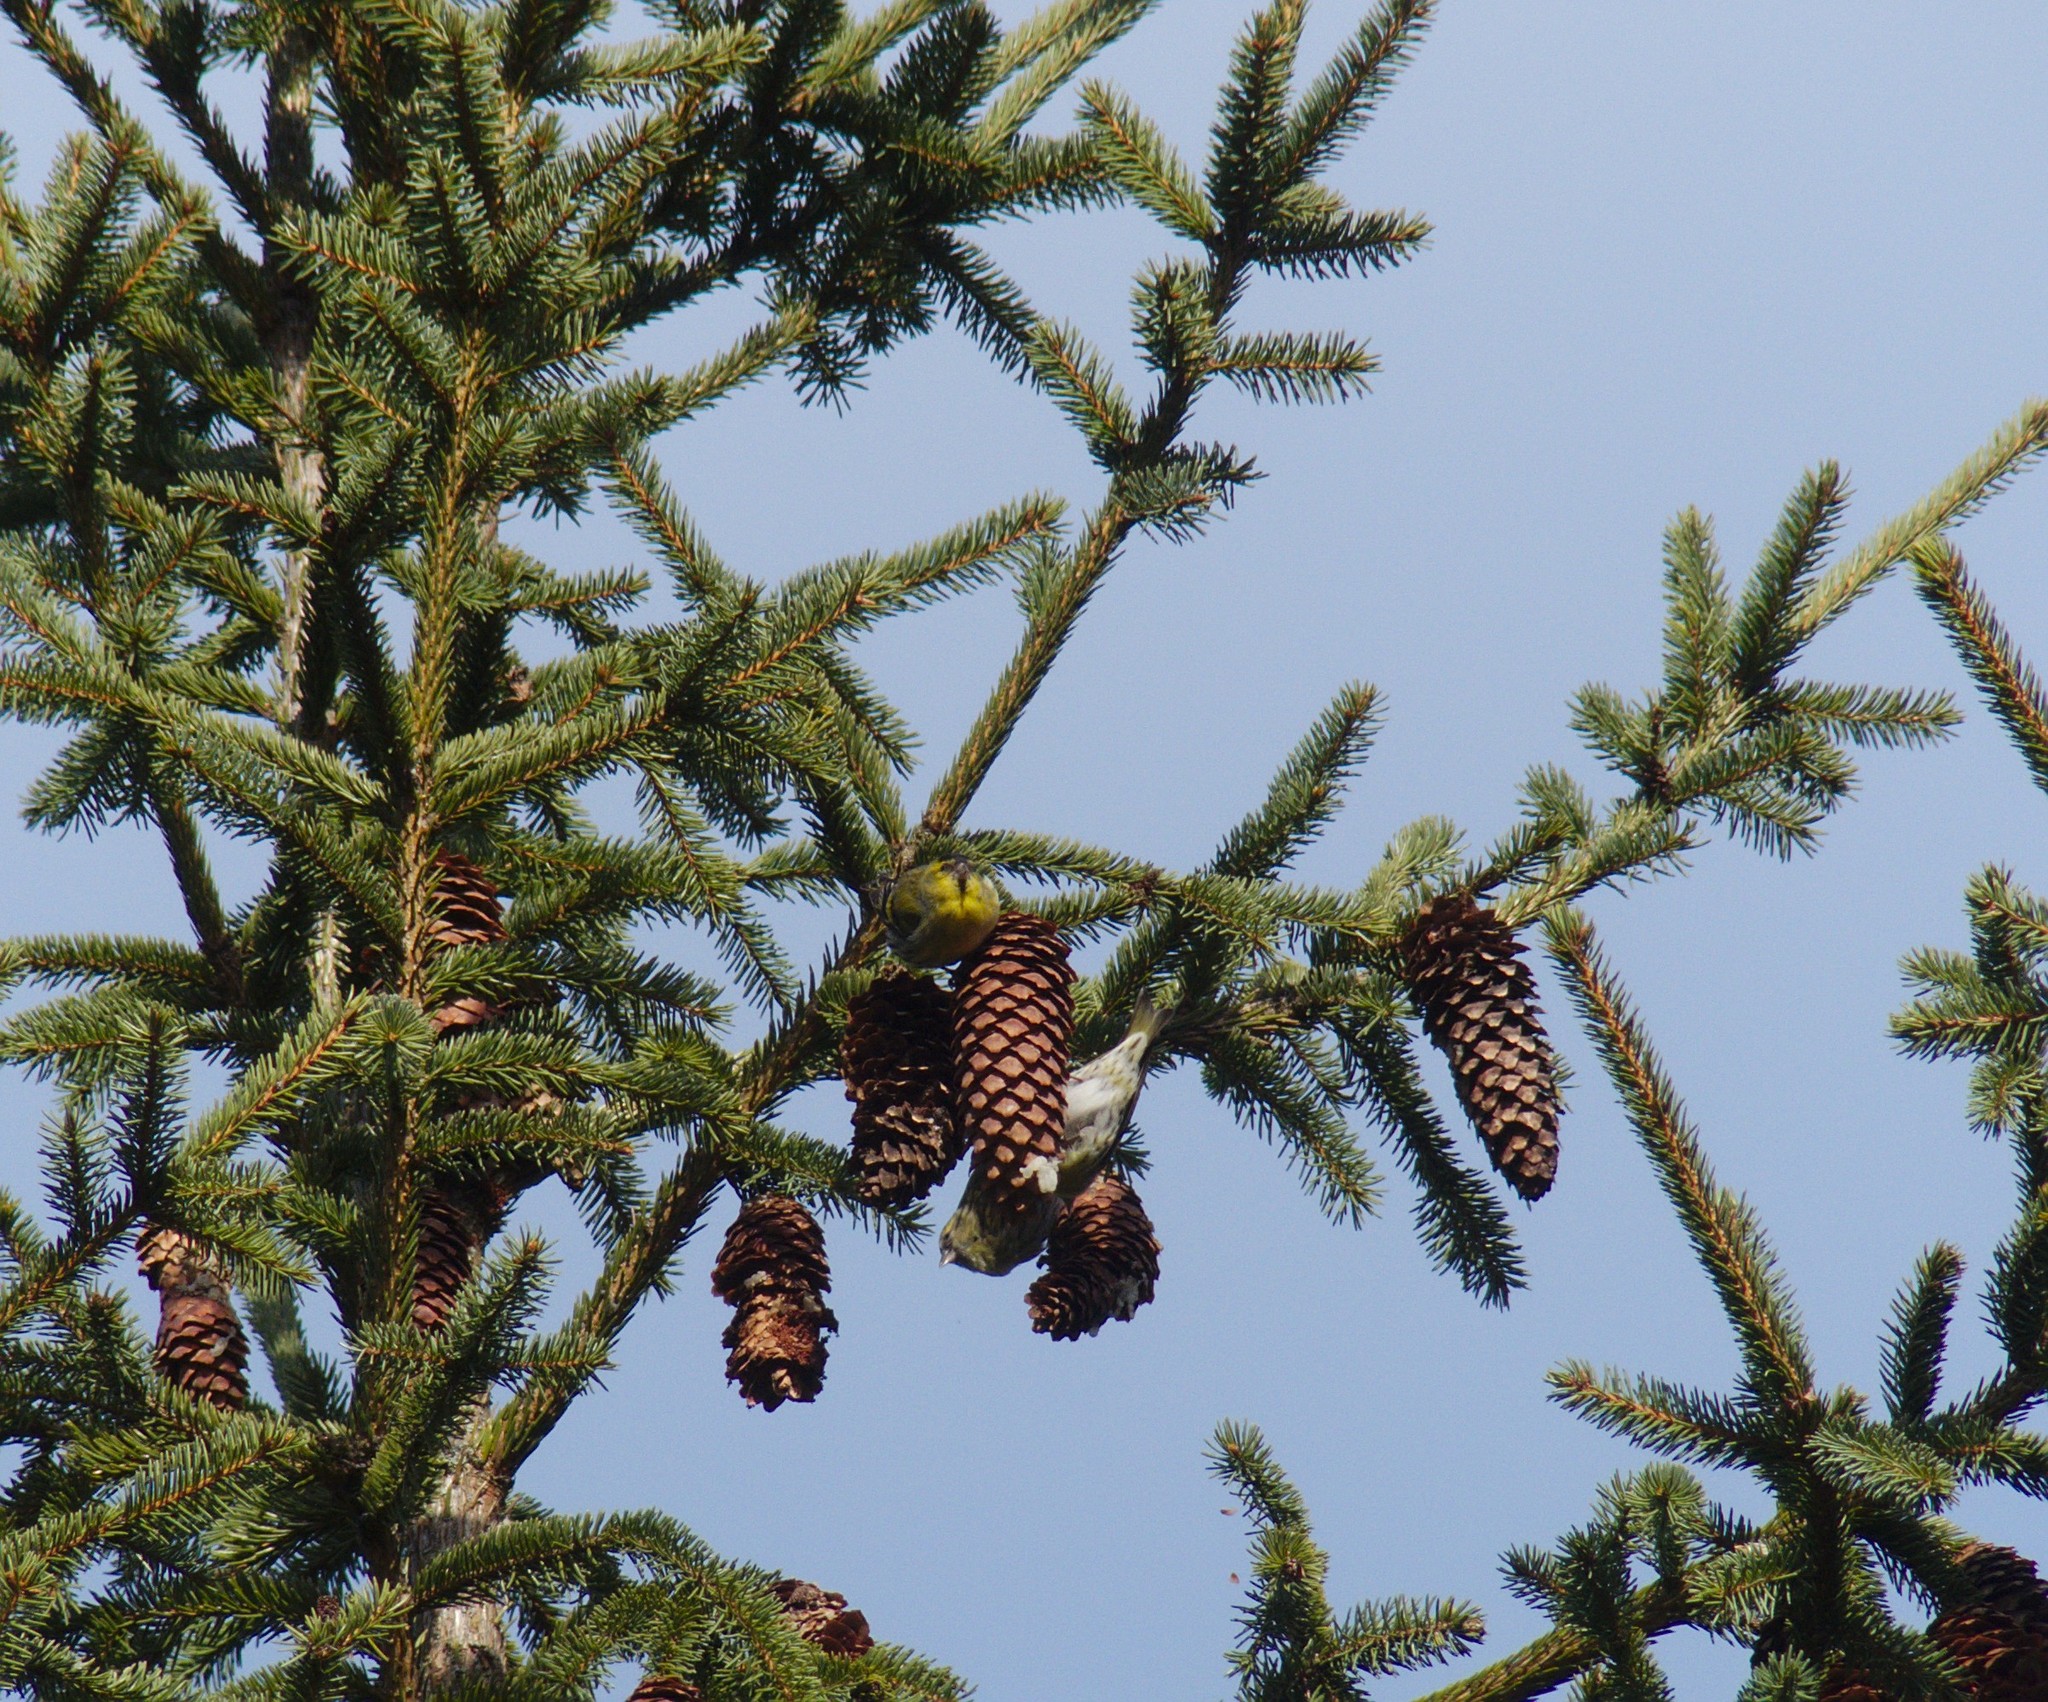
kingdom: Animalia
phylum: Chordata
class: Aves
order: Passeriformes
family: Fringillidae
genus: Spinus
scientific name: Spinus spinus
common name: Eurasian siskin
